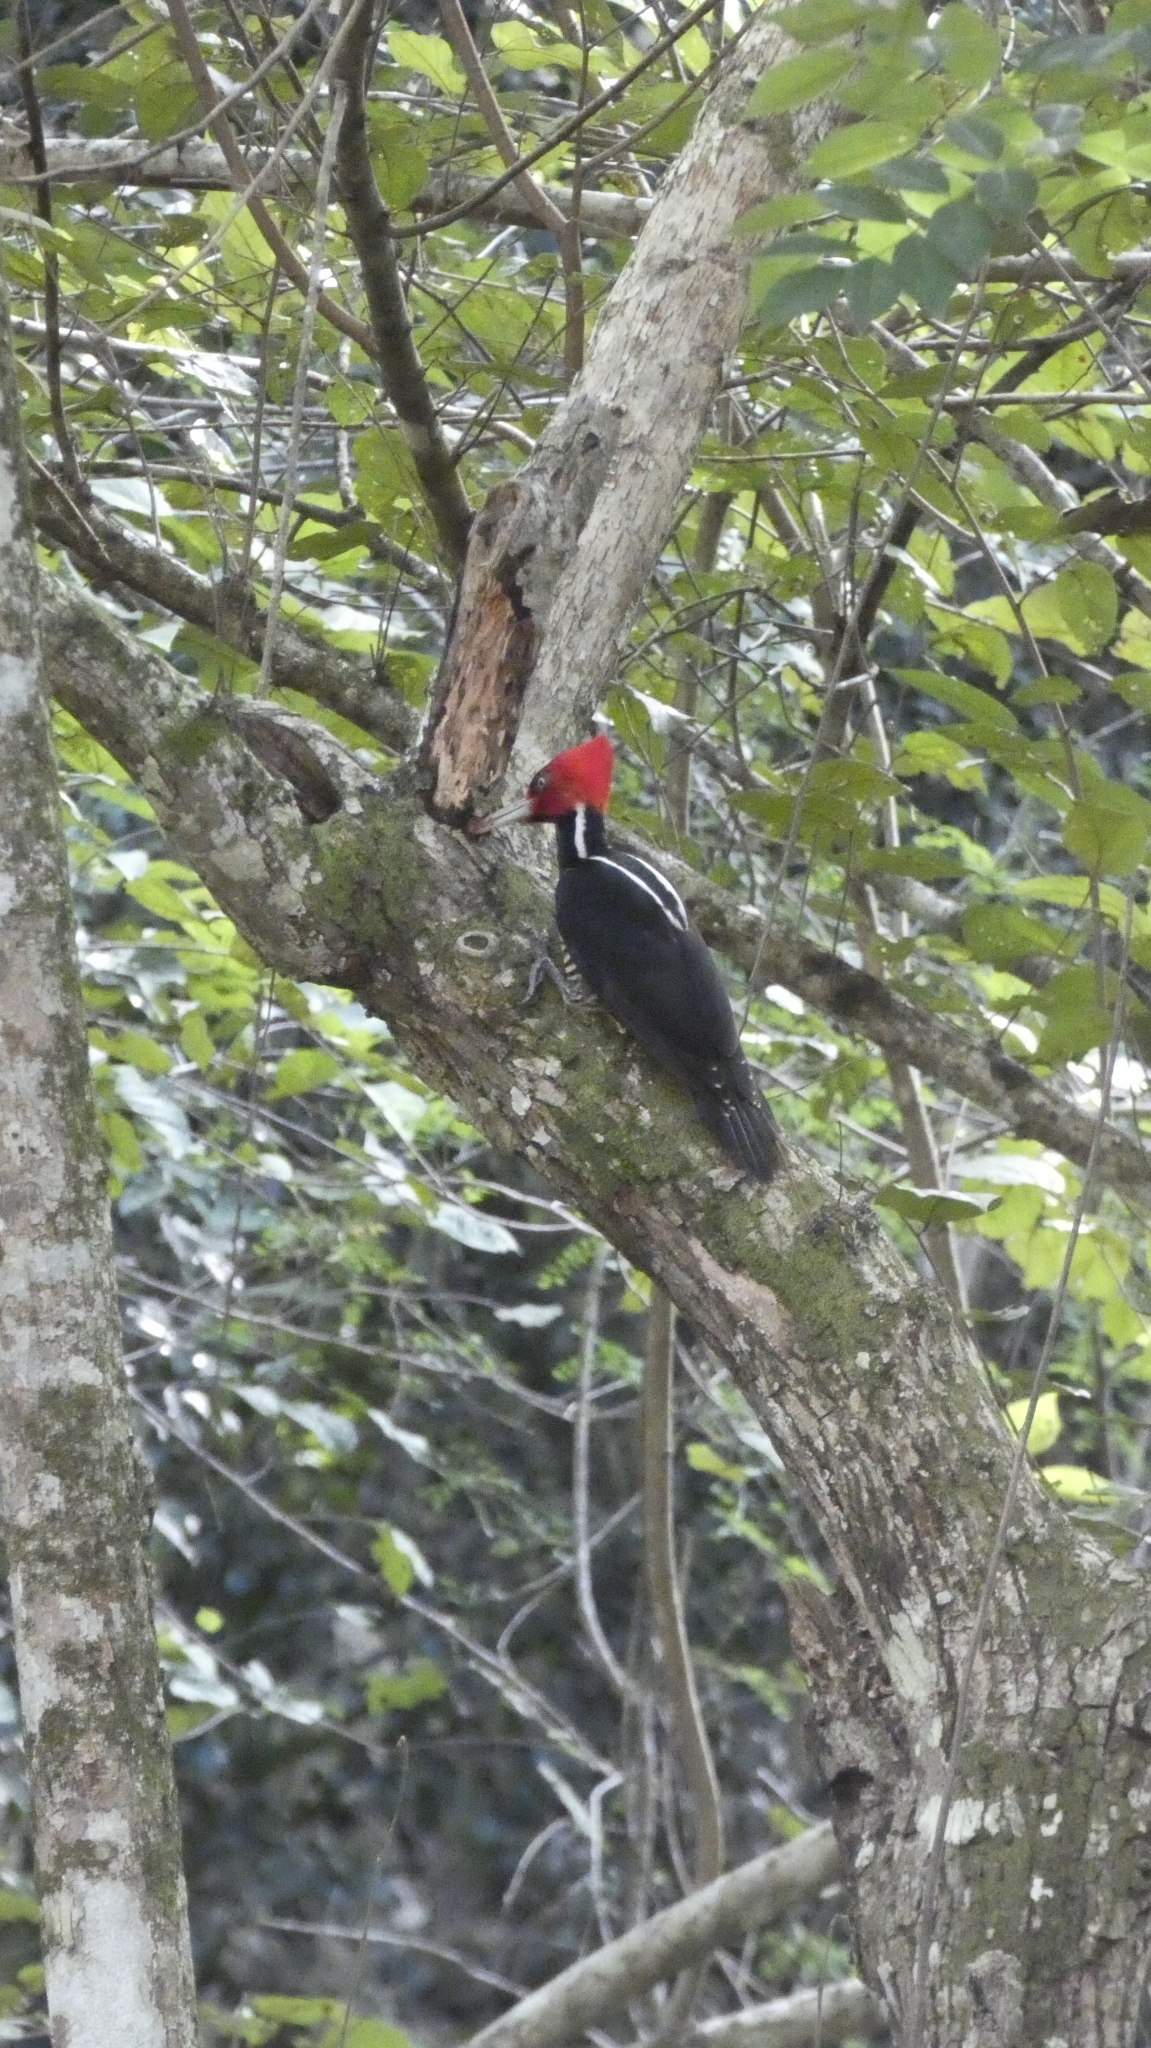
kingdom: Animalia
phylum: Chordata
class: Aves
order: Piciformes
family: Picidae
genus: Campephilus
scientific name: Campephilus guatemalensis
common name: Pale-billed woodpecker
